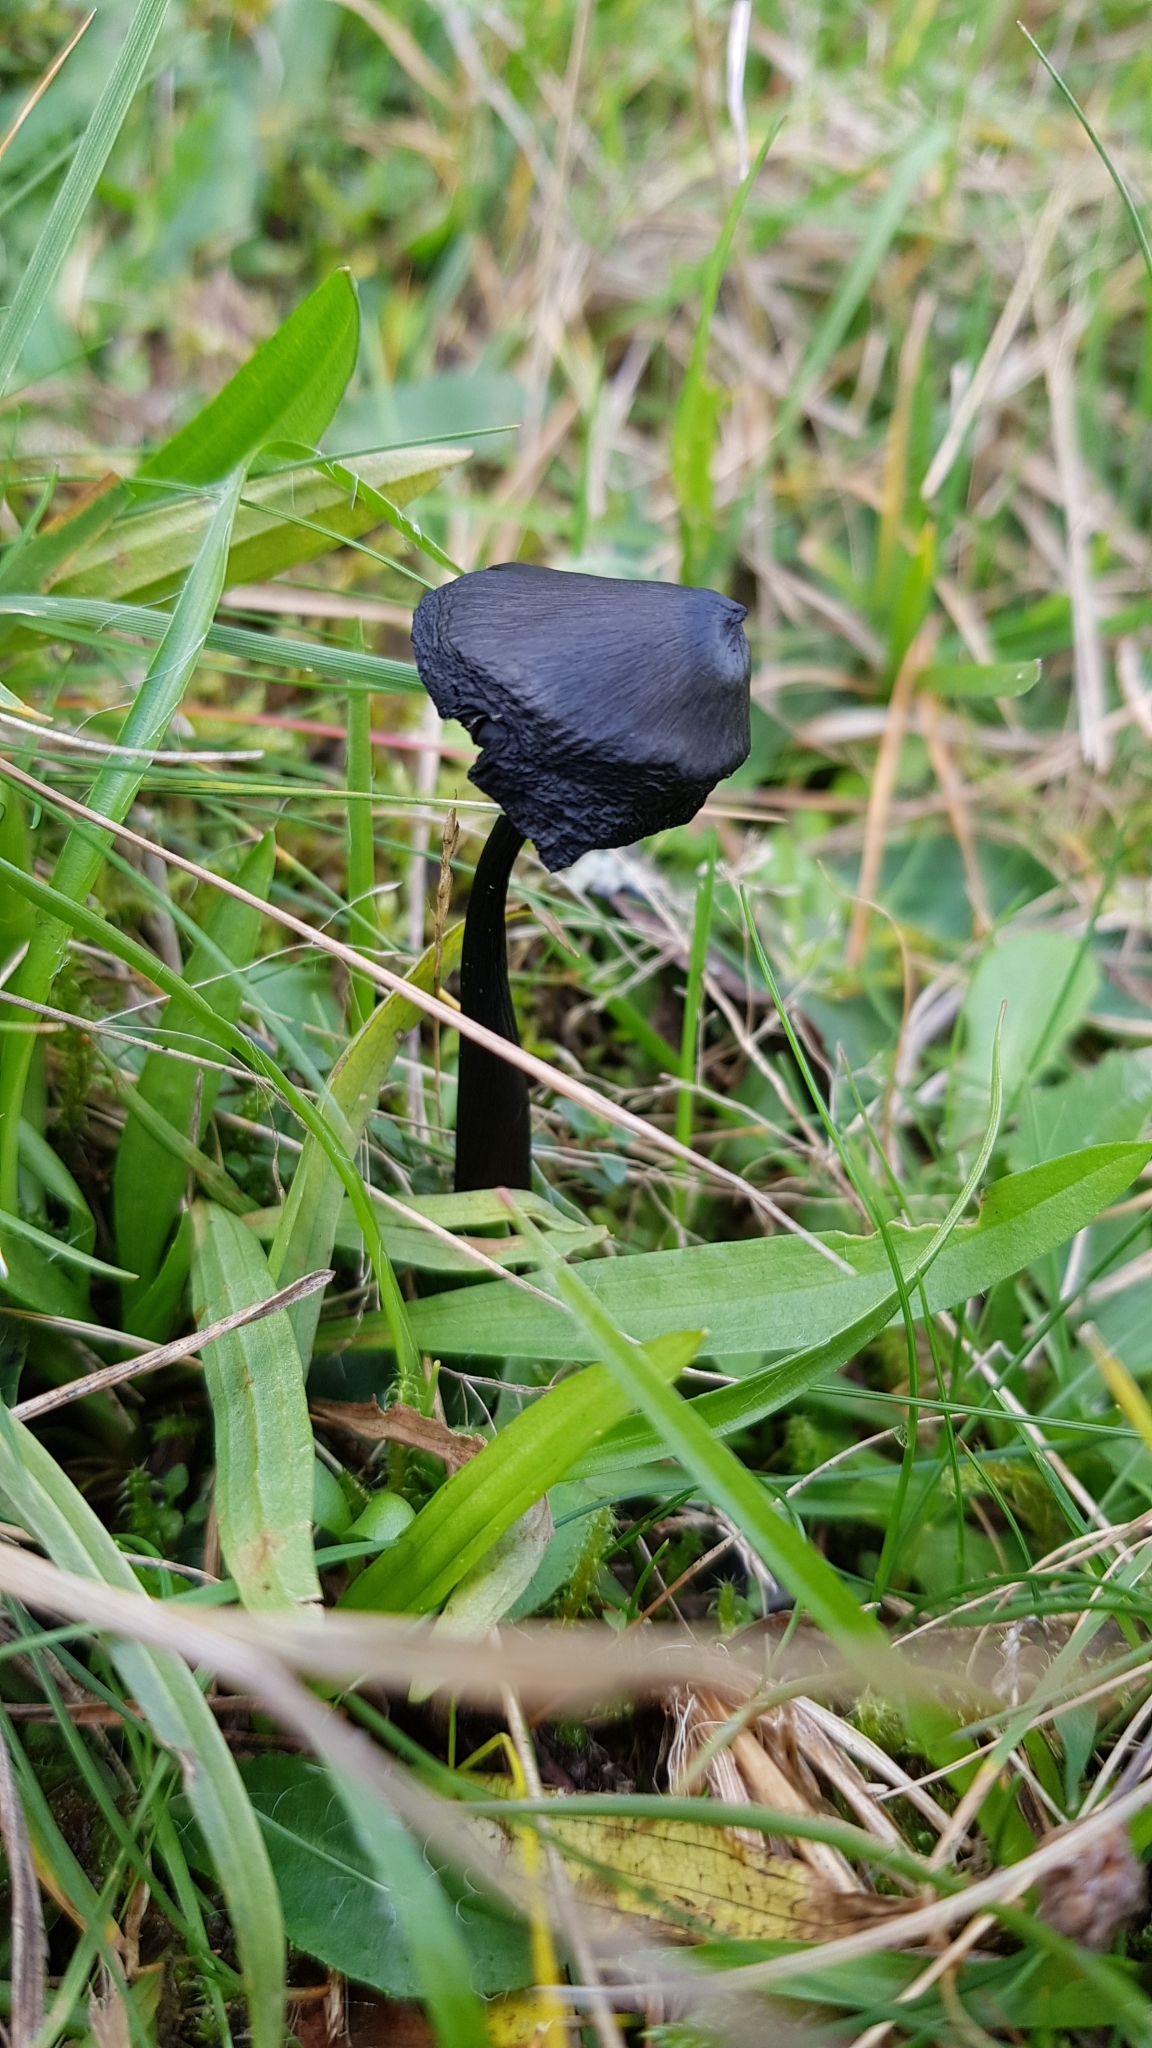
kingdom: Fungi
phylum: Basidiomycota
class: Agaricomycetes
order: Agaricales
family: Hygrophoraceae
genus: Hygrocybe
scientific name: Hygrocybe conica
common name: Blackening wax-cap
